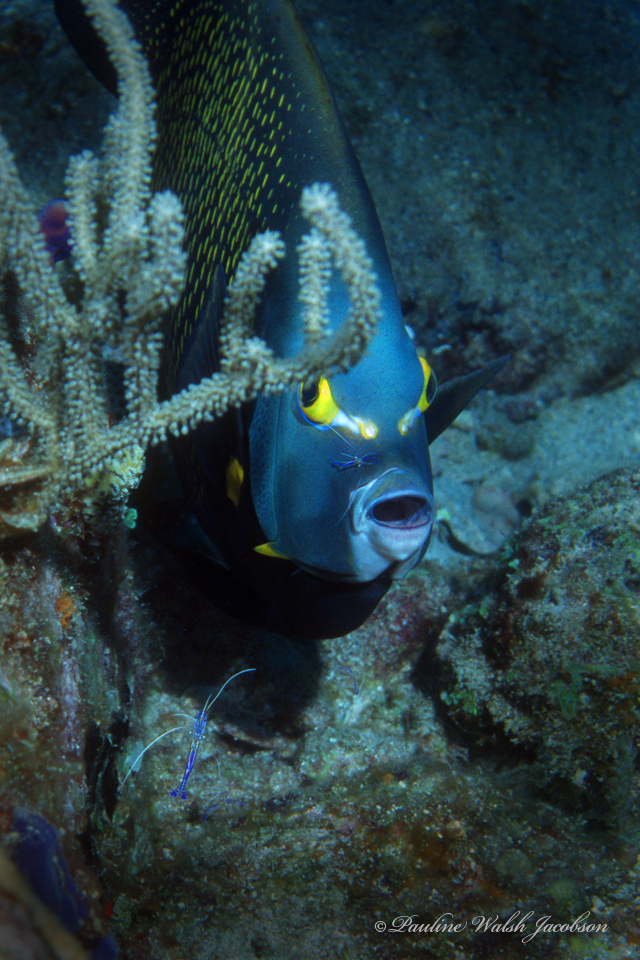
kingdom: Animalia
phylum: Chordata
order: Perciformes
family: Pomacanthidae
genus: Pomacanthus
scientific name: Pomacanthus paru
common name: French angelfish
